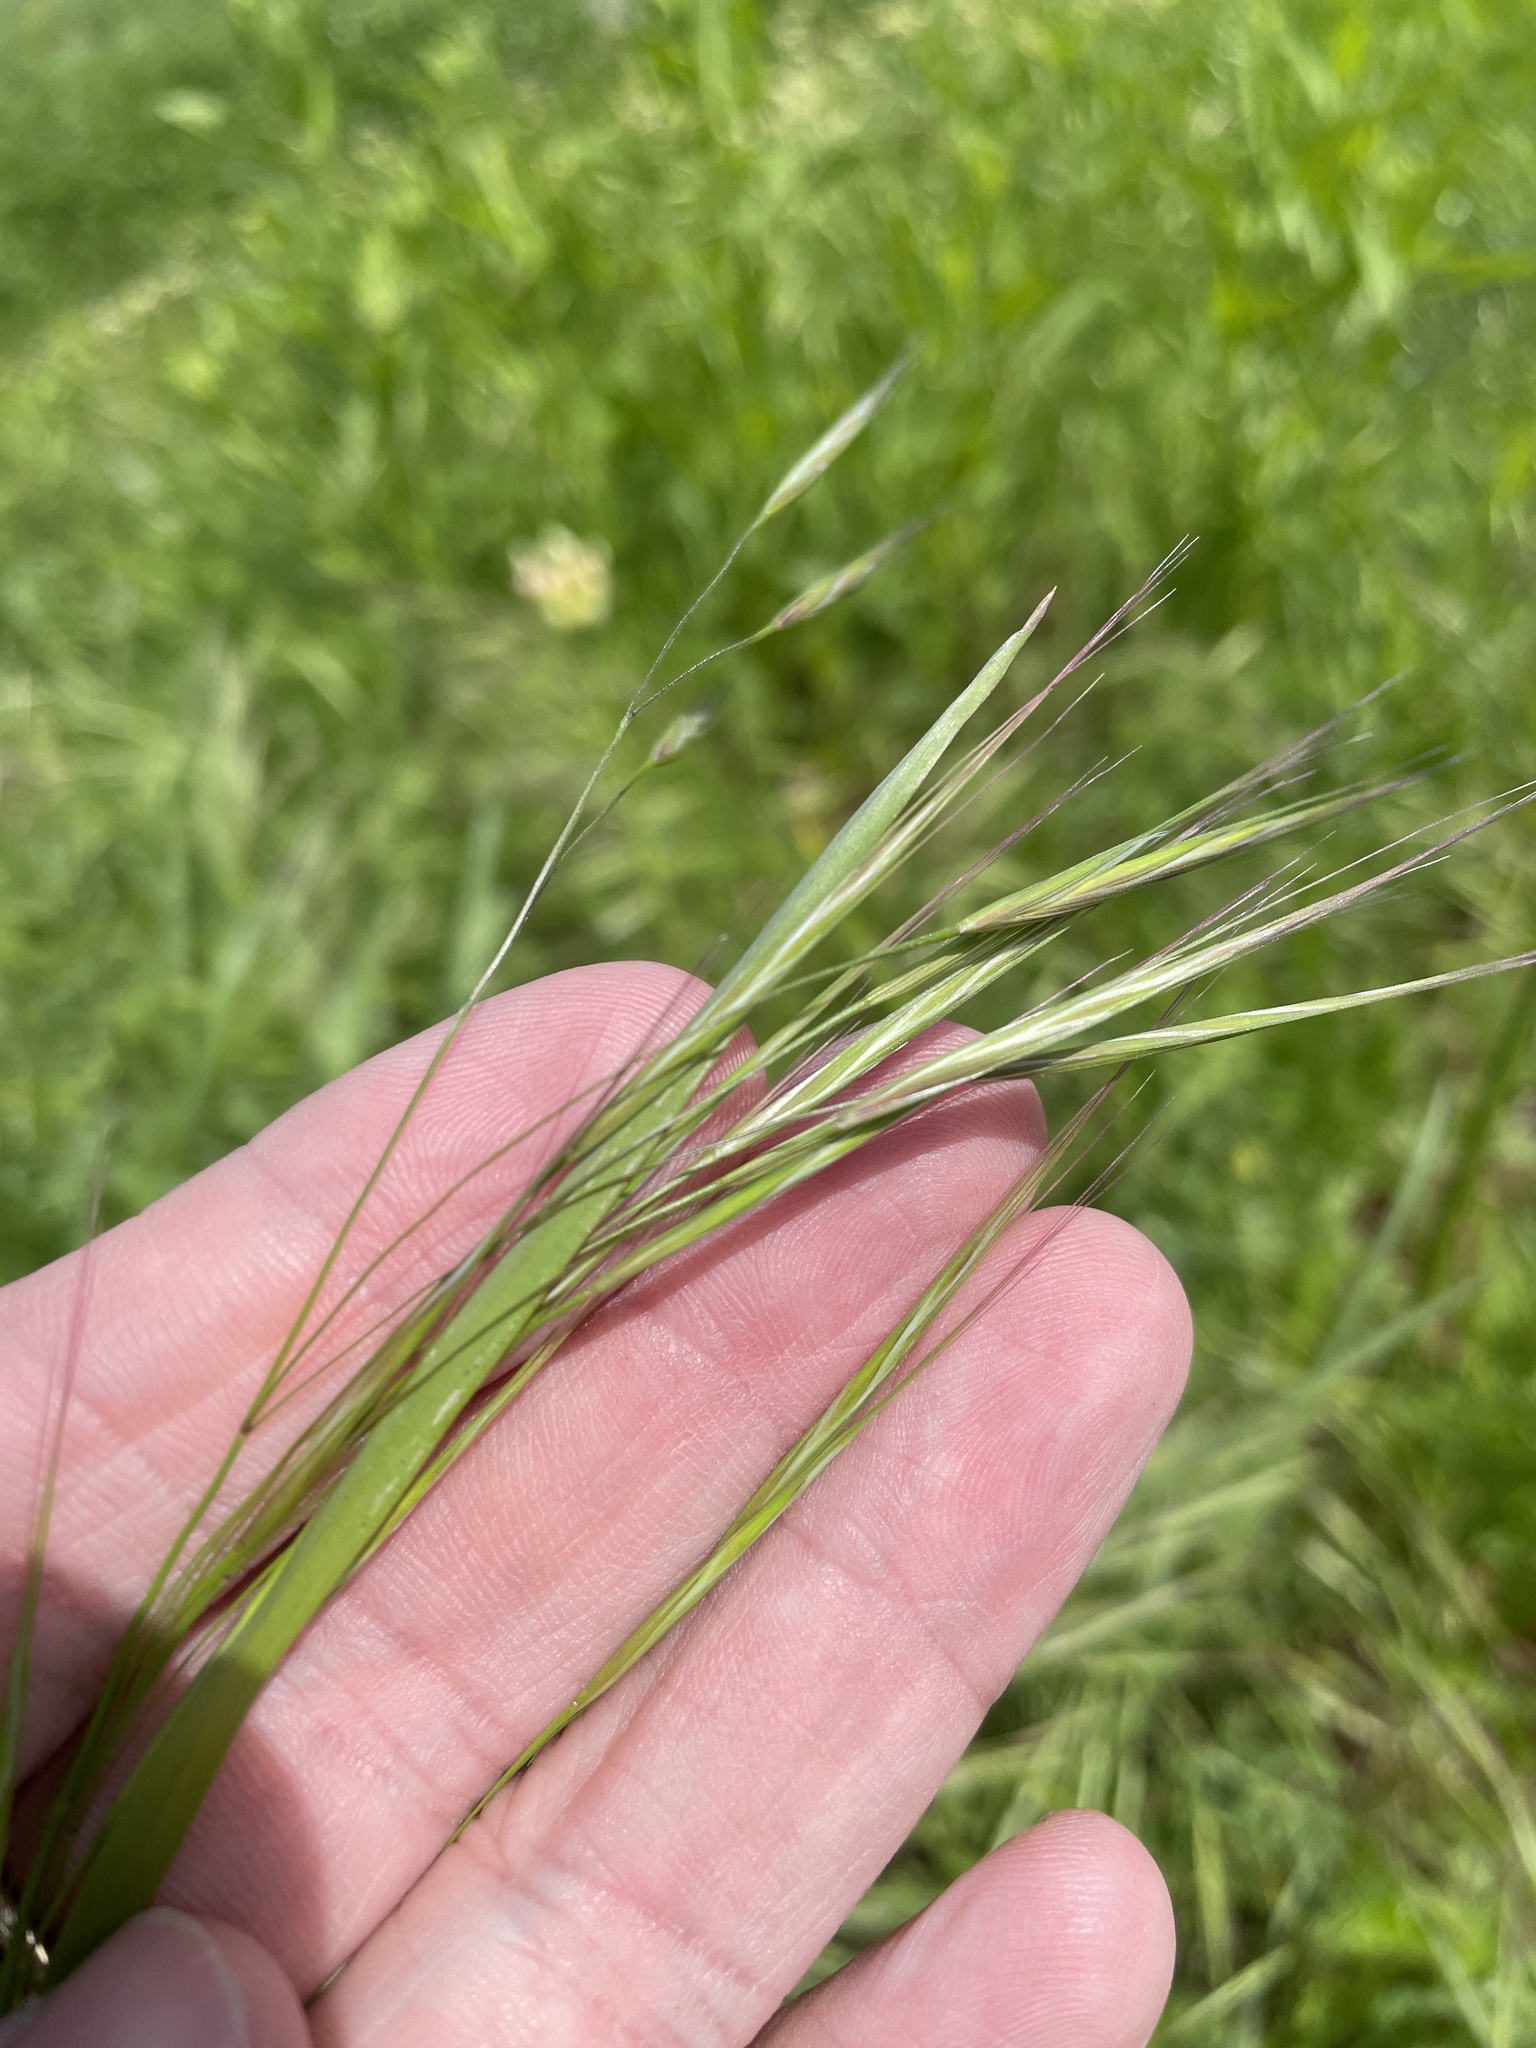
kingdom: Plantae
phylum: Tracheophyta
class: Liliopsida
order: Poales
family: Poaceae
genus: Bromus
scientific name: Bromus diandrus
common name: Ripgut brome
